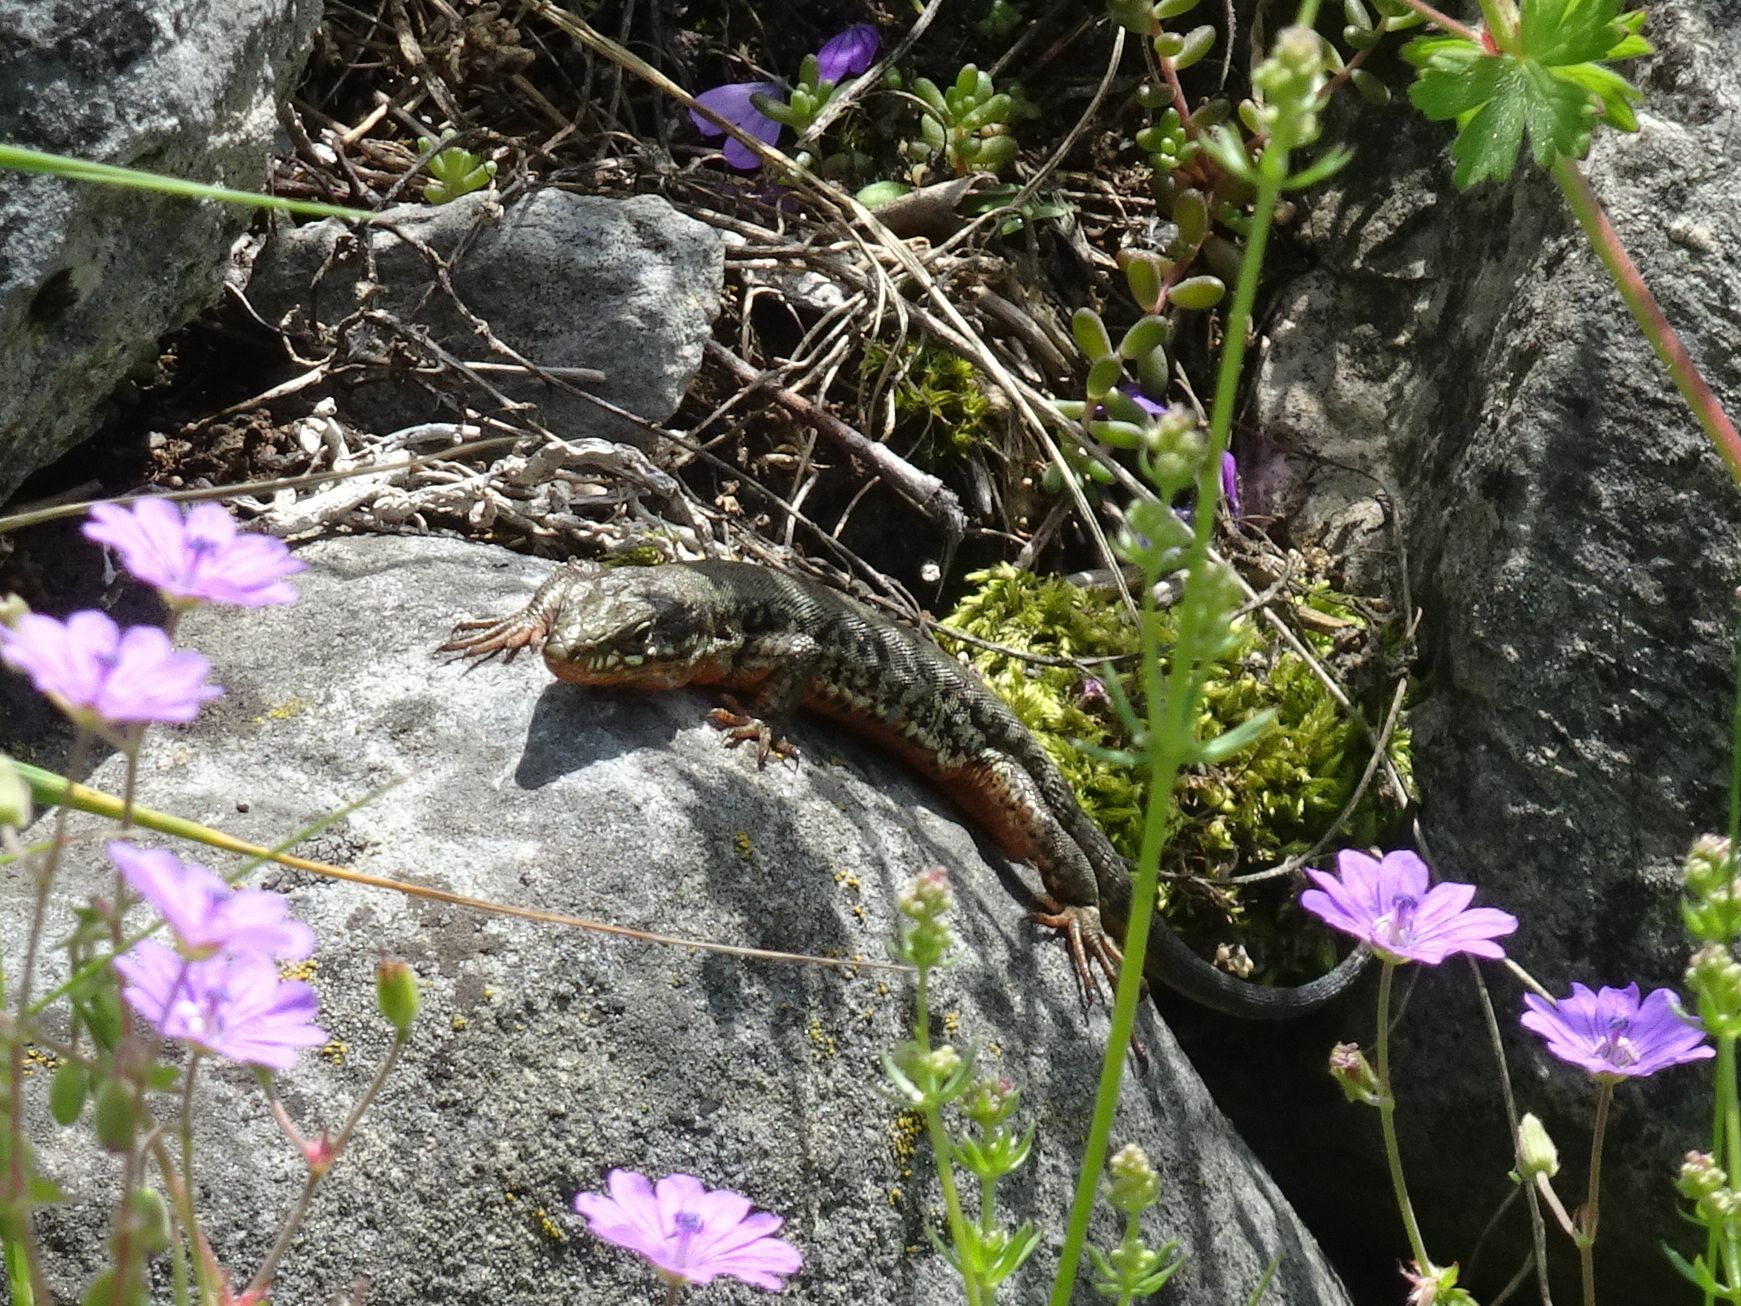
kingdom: Animalia
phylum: Chordata
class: Squamata
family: Lacertidae
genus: Podarcis
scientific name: Podarcis muralis
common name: Common wall lizard
